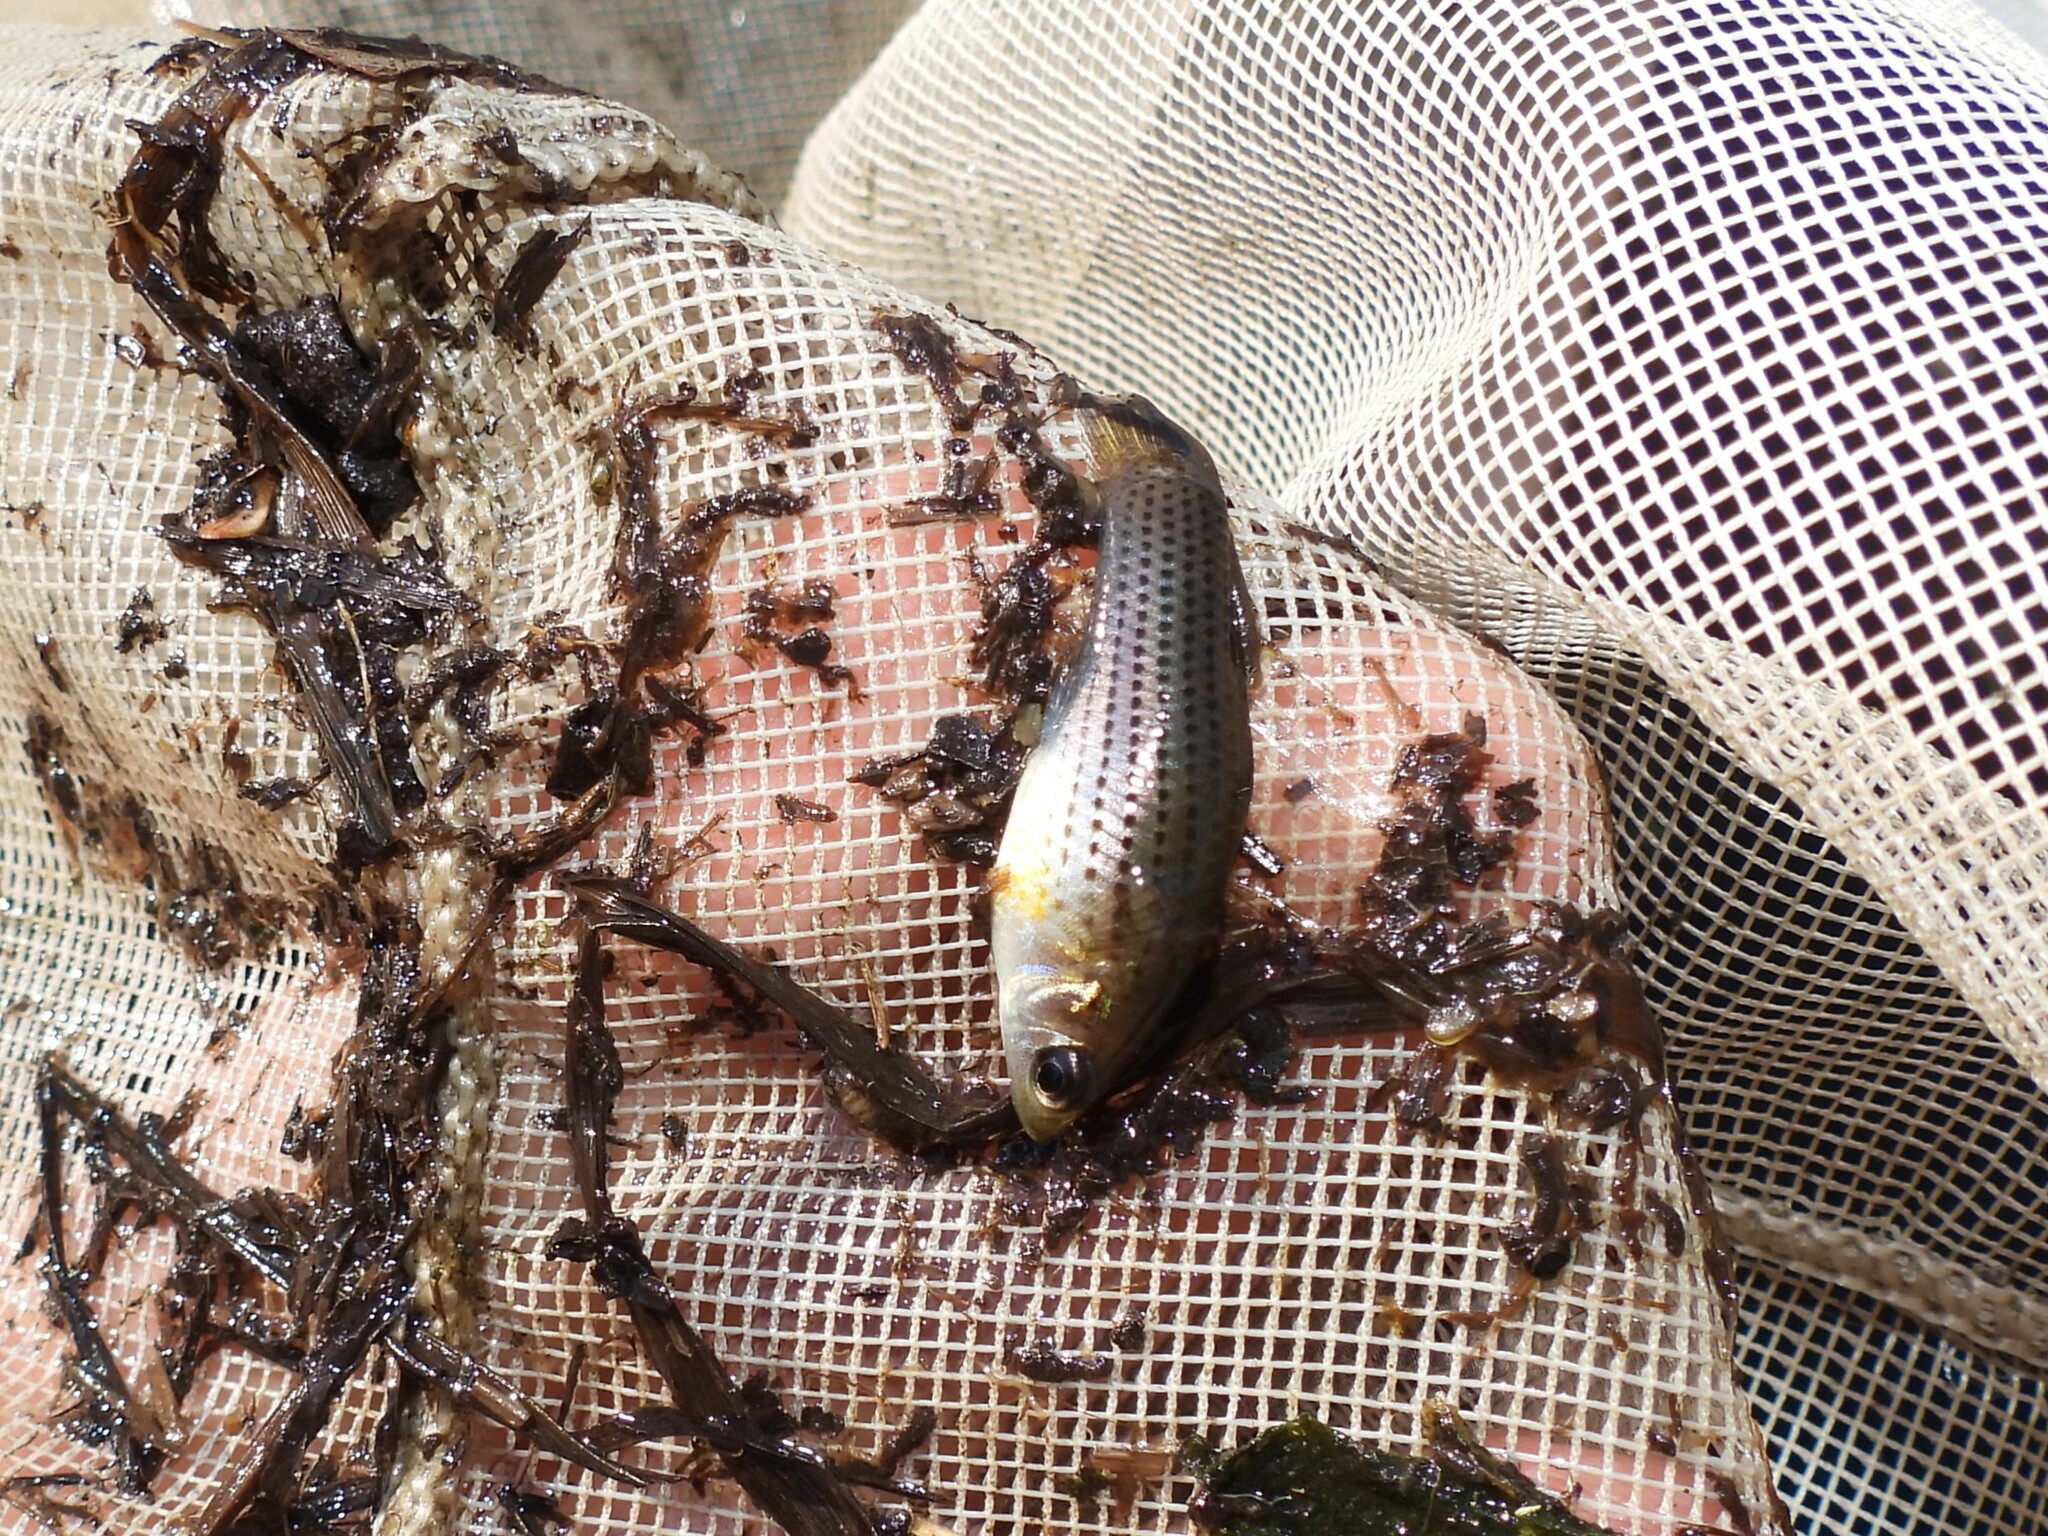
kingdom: Animalia
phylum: Chordata
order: Cyprinodontiformes
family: Poeciliidae
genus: Poecilia
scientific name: Poecilia latipinna
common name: Sailfin molly
